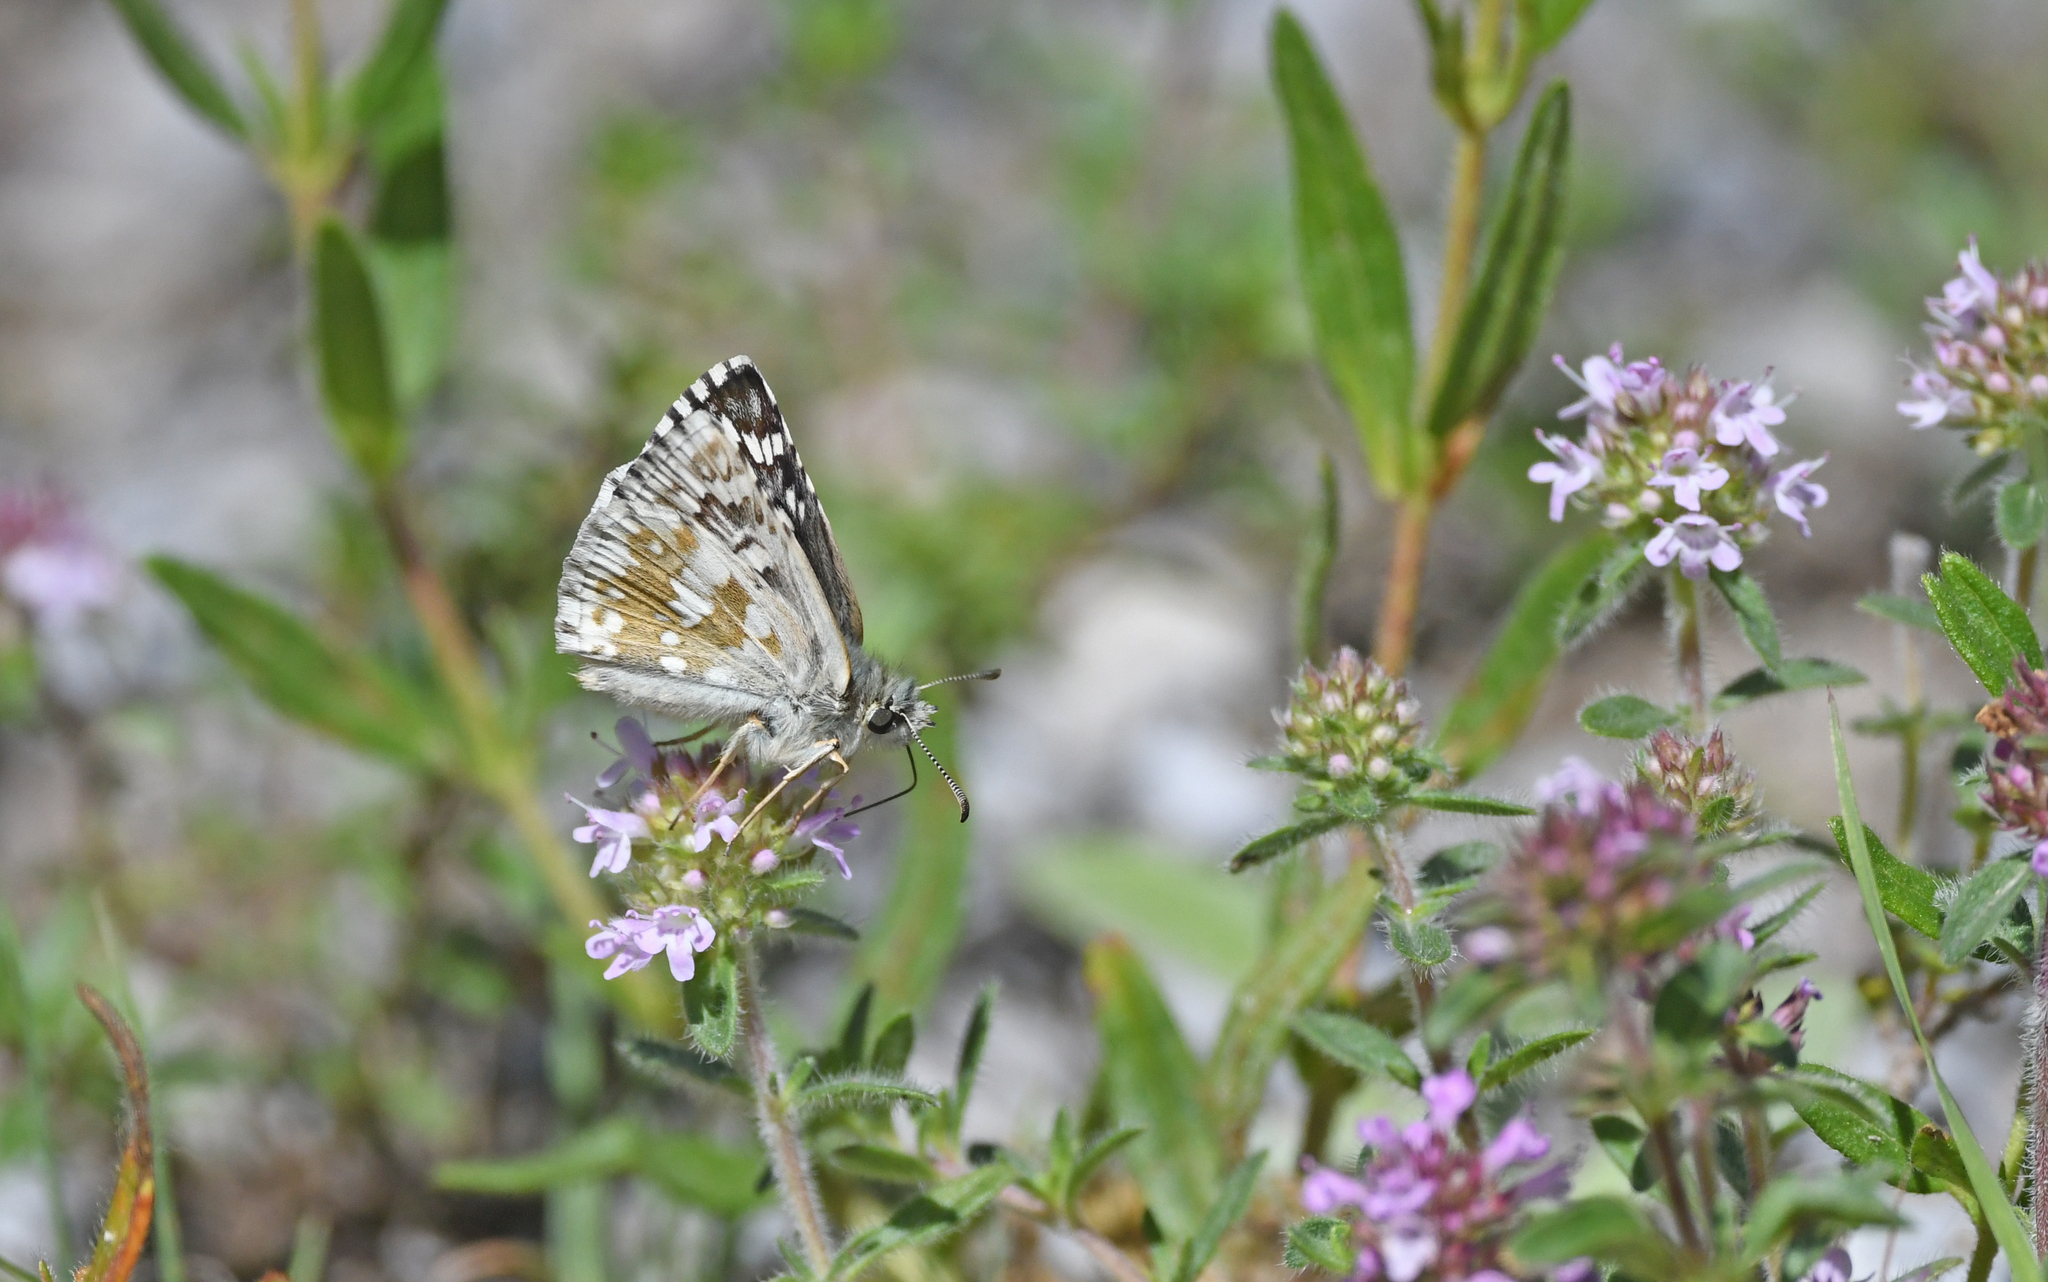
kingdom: Animalia
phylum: Arthropoda
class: Insecta
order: Lepidoptera
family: Hesperiidae
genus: Pyrgus
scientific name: Pyrgus fritillarius
